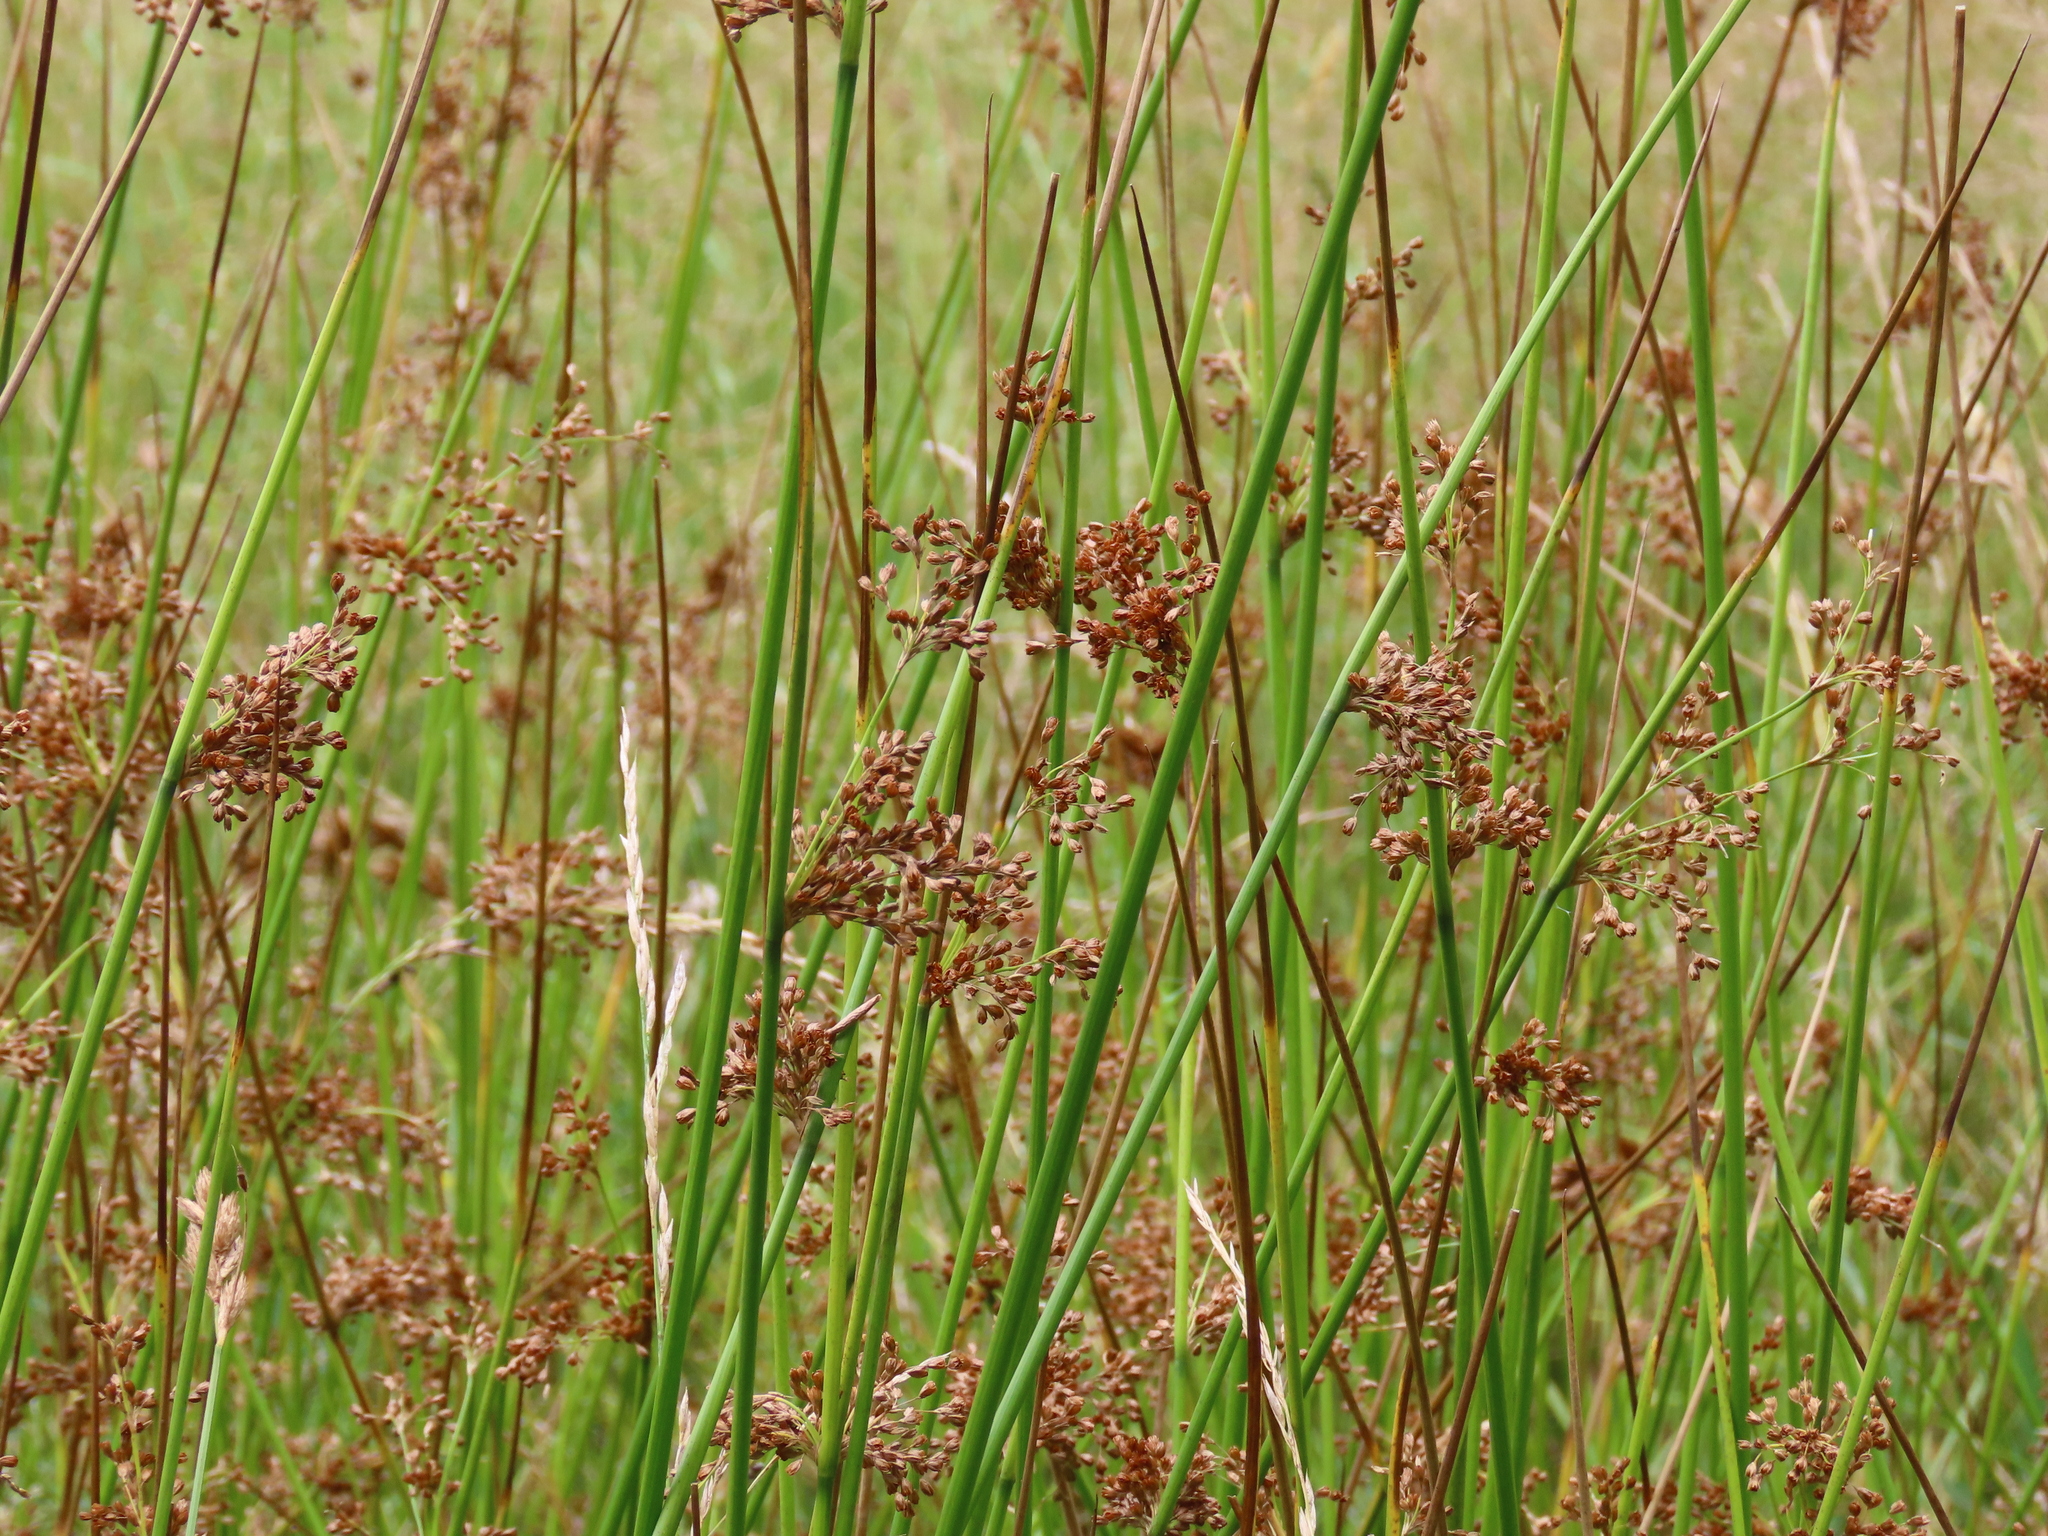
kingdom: Plantae
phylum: Tracheophyta
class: Liliopsida
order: Poales
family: Juncaceae
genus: Juncus
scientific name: Juncus effusus
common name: Soft rush
